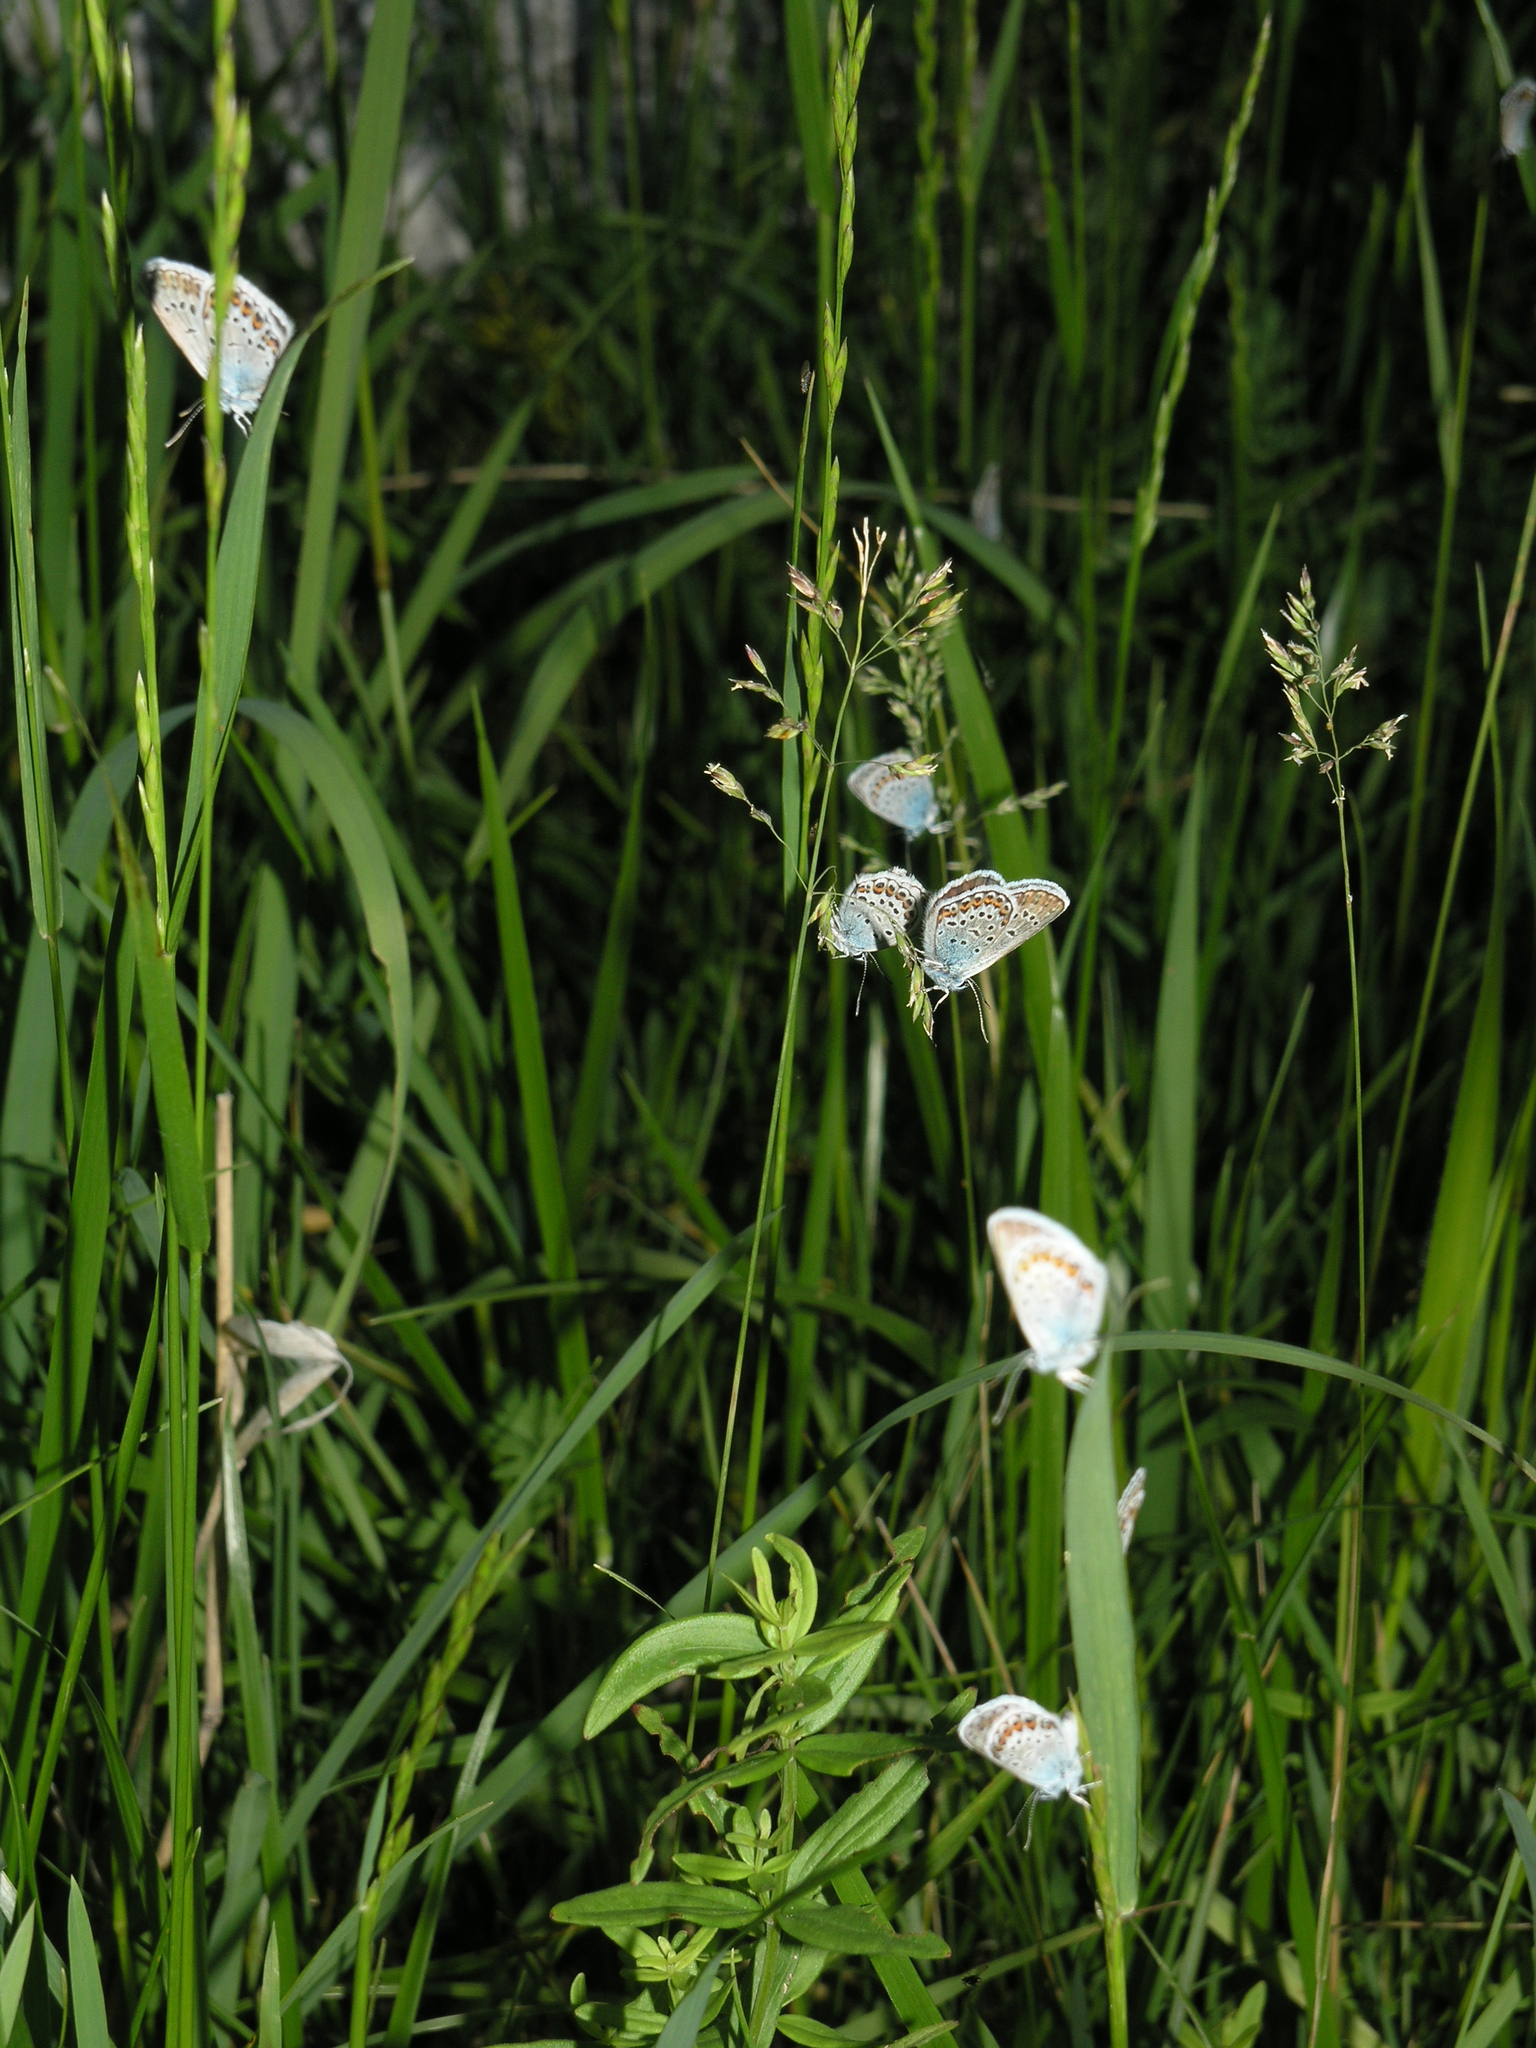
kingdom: Animalia
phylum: Arthropoda
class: Insecta
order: Lepidoptera
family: Lycaenidae
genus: Plebejus
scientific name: Plebejus argus
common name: Silver-studded blue
